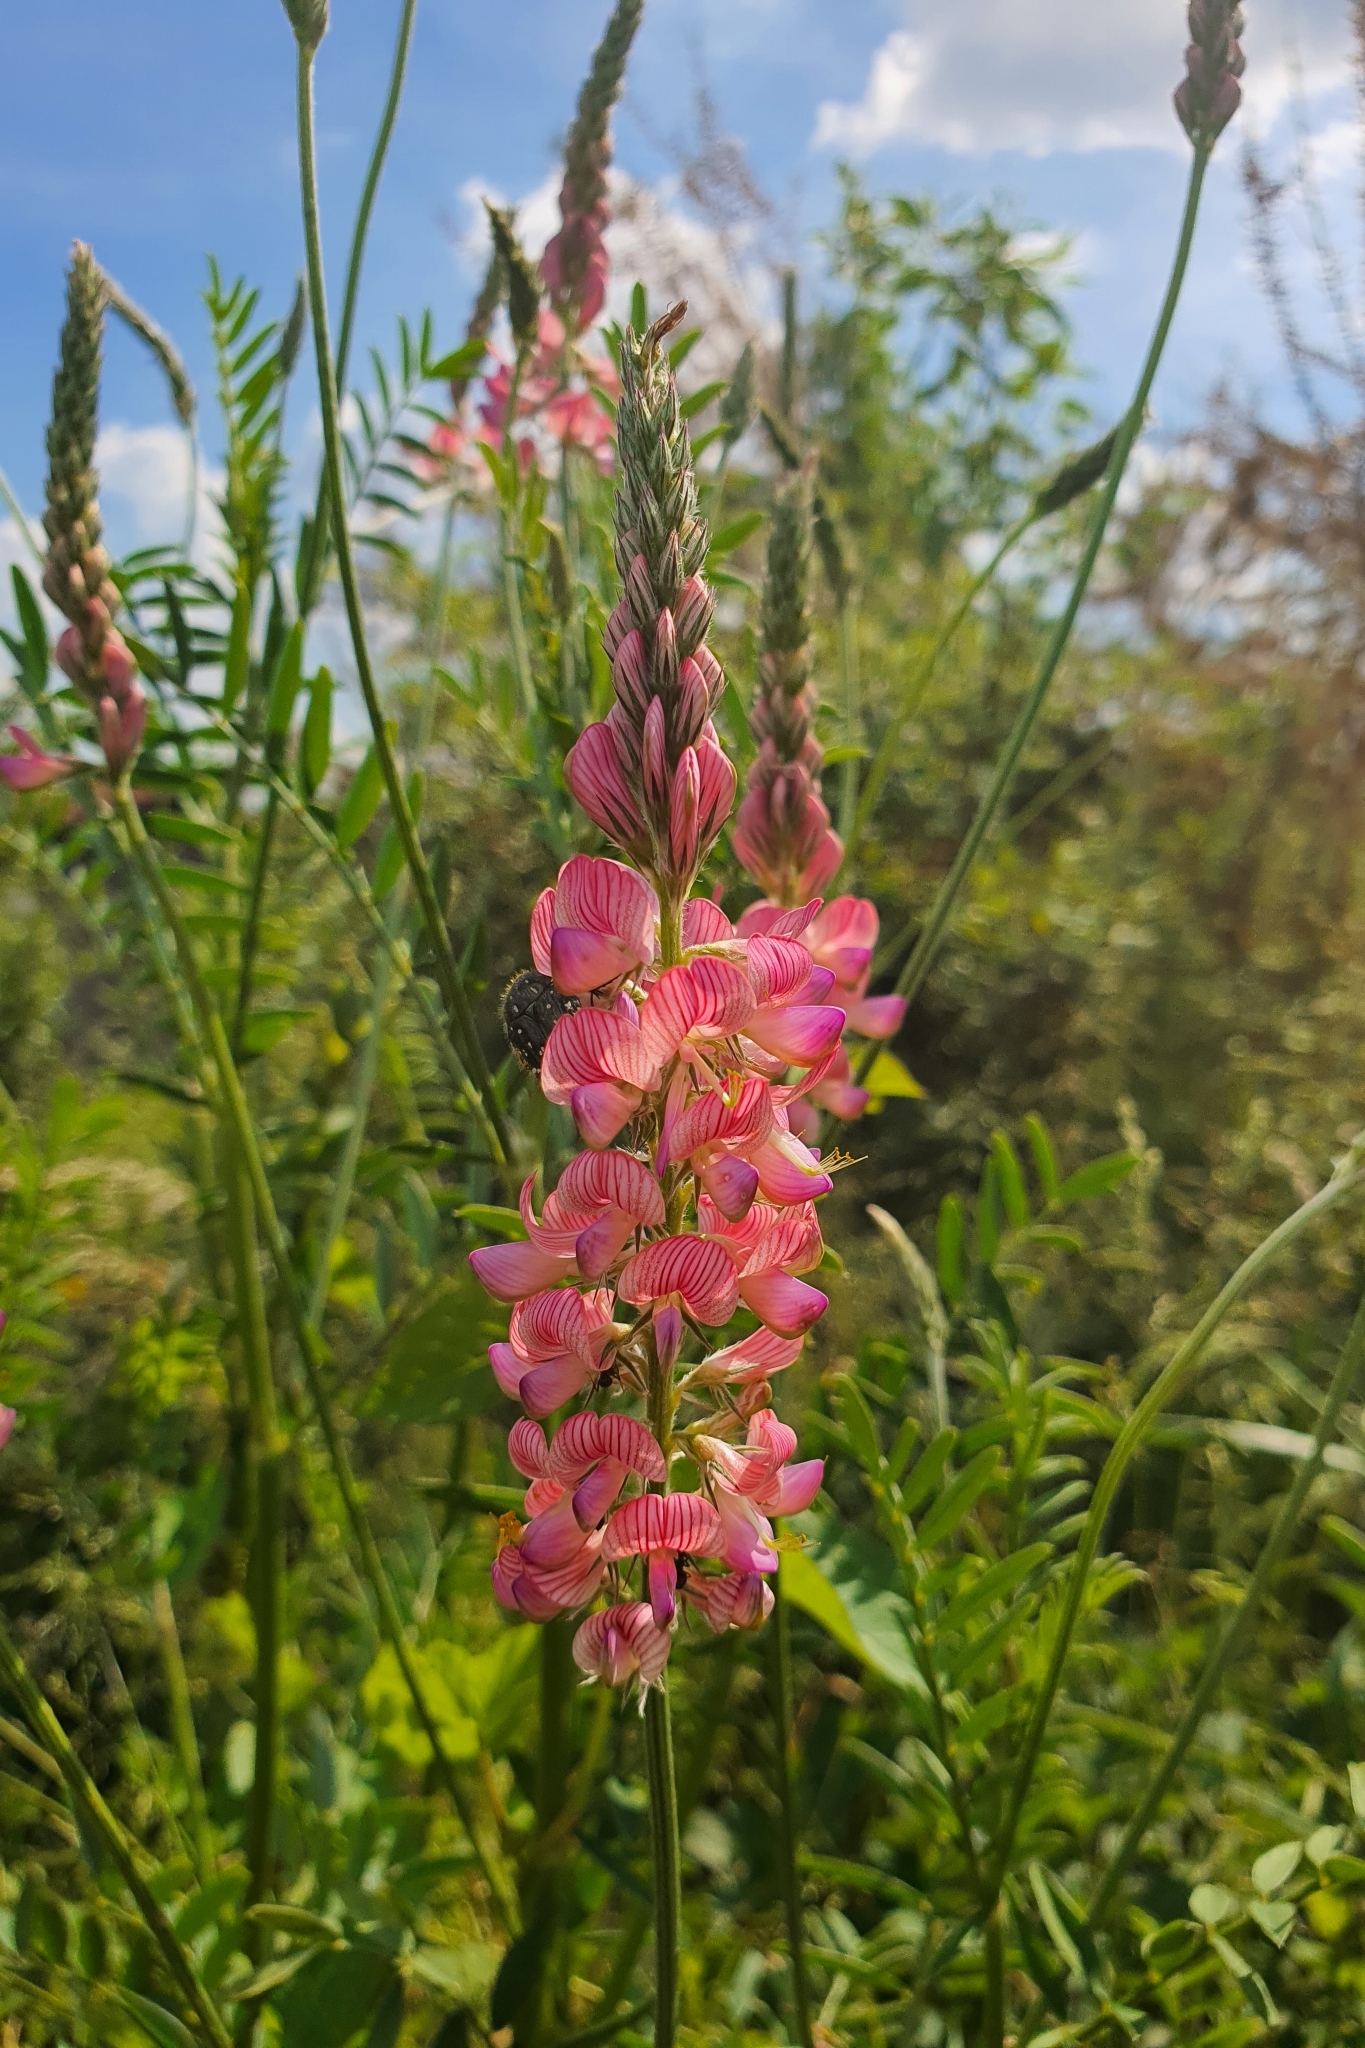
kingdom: Plantae
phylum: Tracheophyta
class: Magnoliopsida
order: Fabales
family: Fabaceae
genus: Onobrychis
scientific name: Onobrychis viciifolia
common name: Sainfoin
